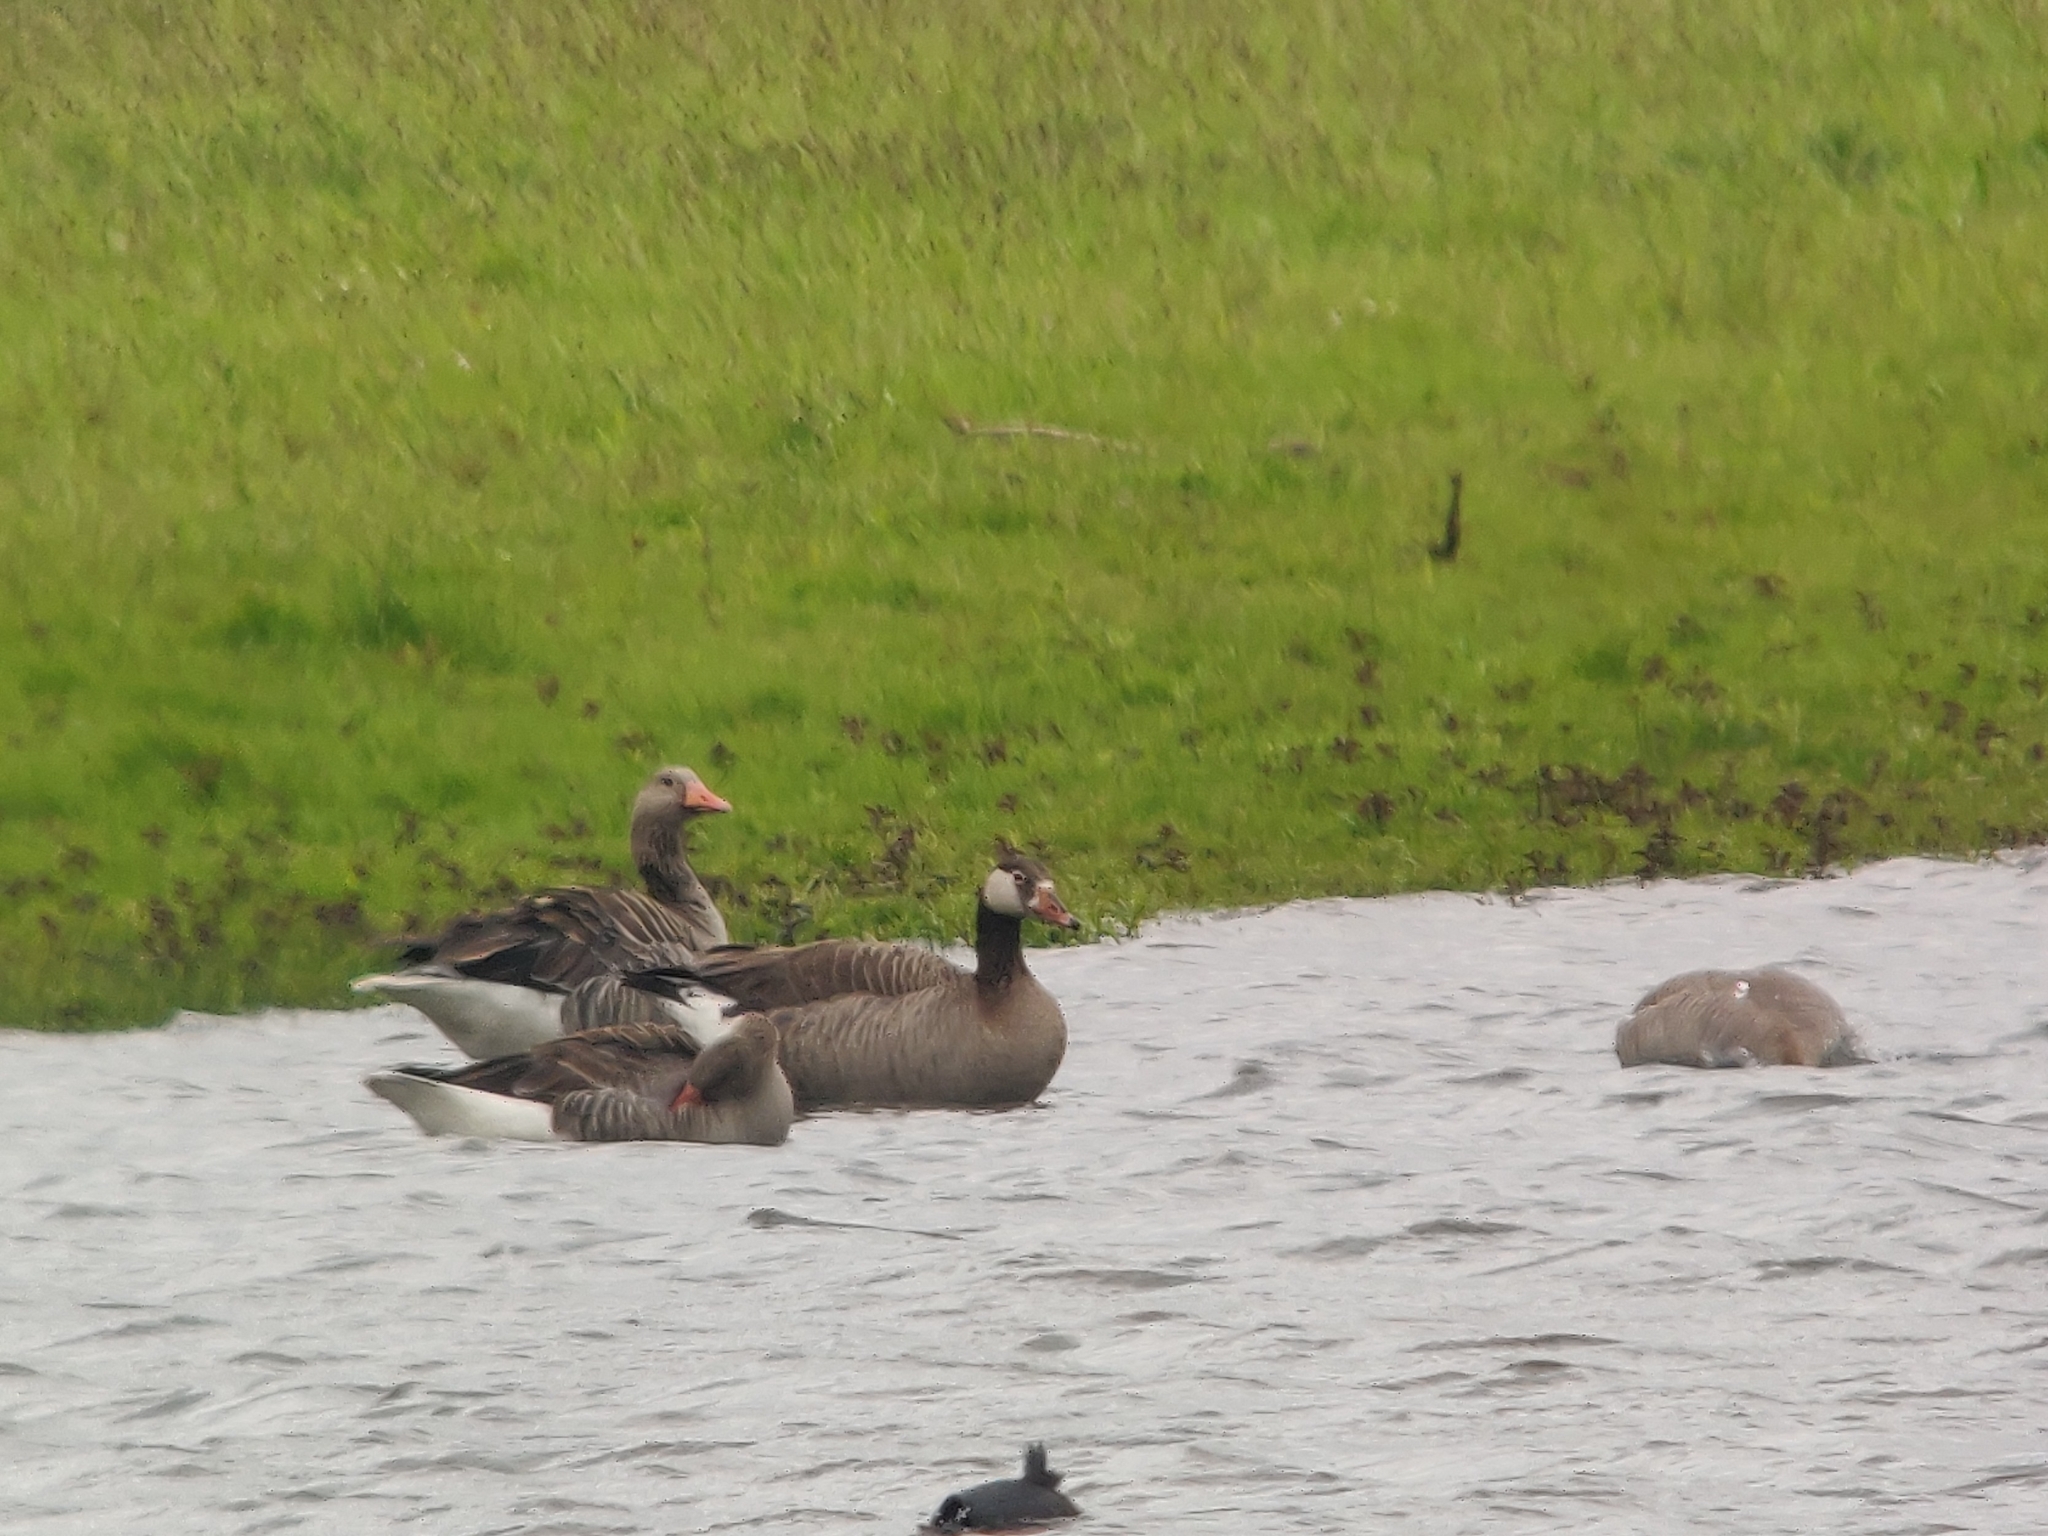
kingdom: Animalia
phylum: Chordata
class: Aves
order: Anseriformes
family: Anatidae
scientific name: Anatidae
